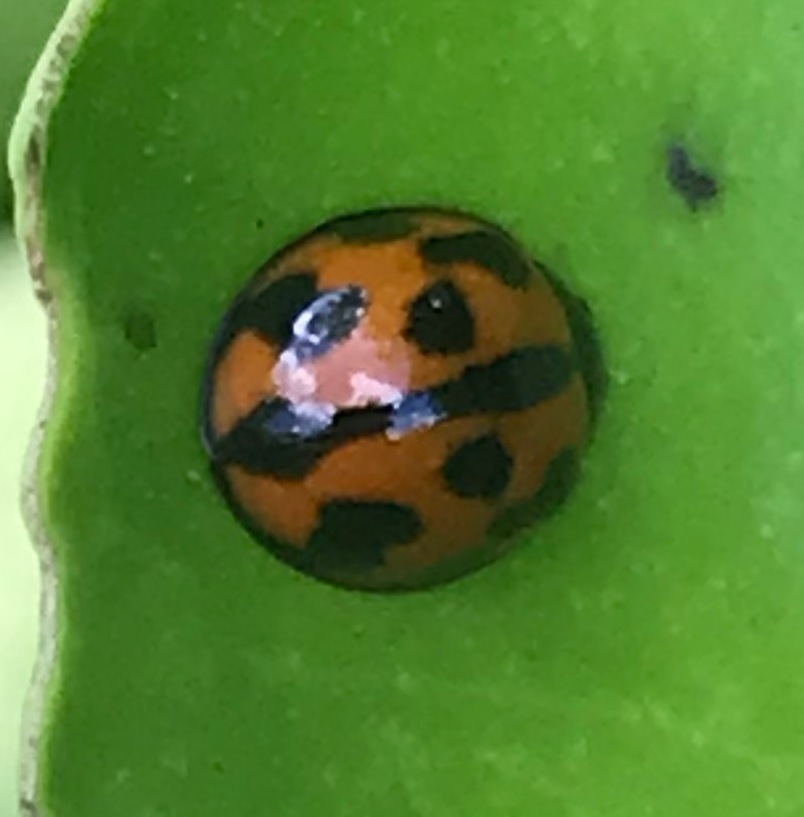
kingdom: Animalia
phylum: Arthropoda
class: Insecta
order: Coleoptera
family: Coccinellidae
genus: Coelophora
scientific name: Coelophora inaequalis
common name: Common australian lady beetle
